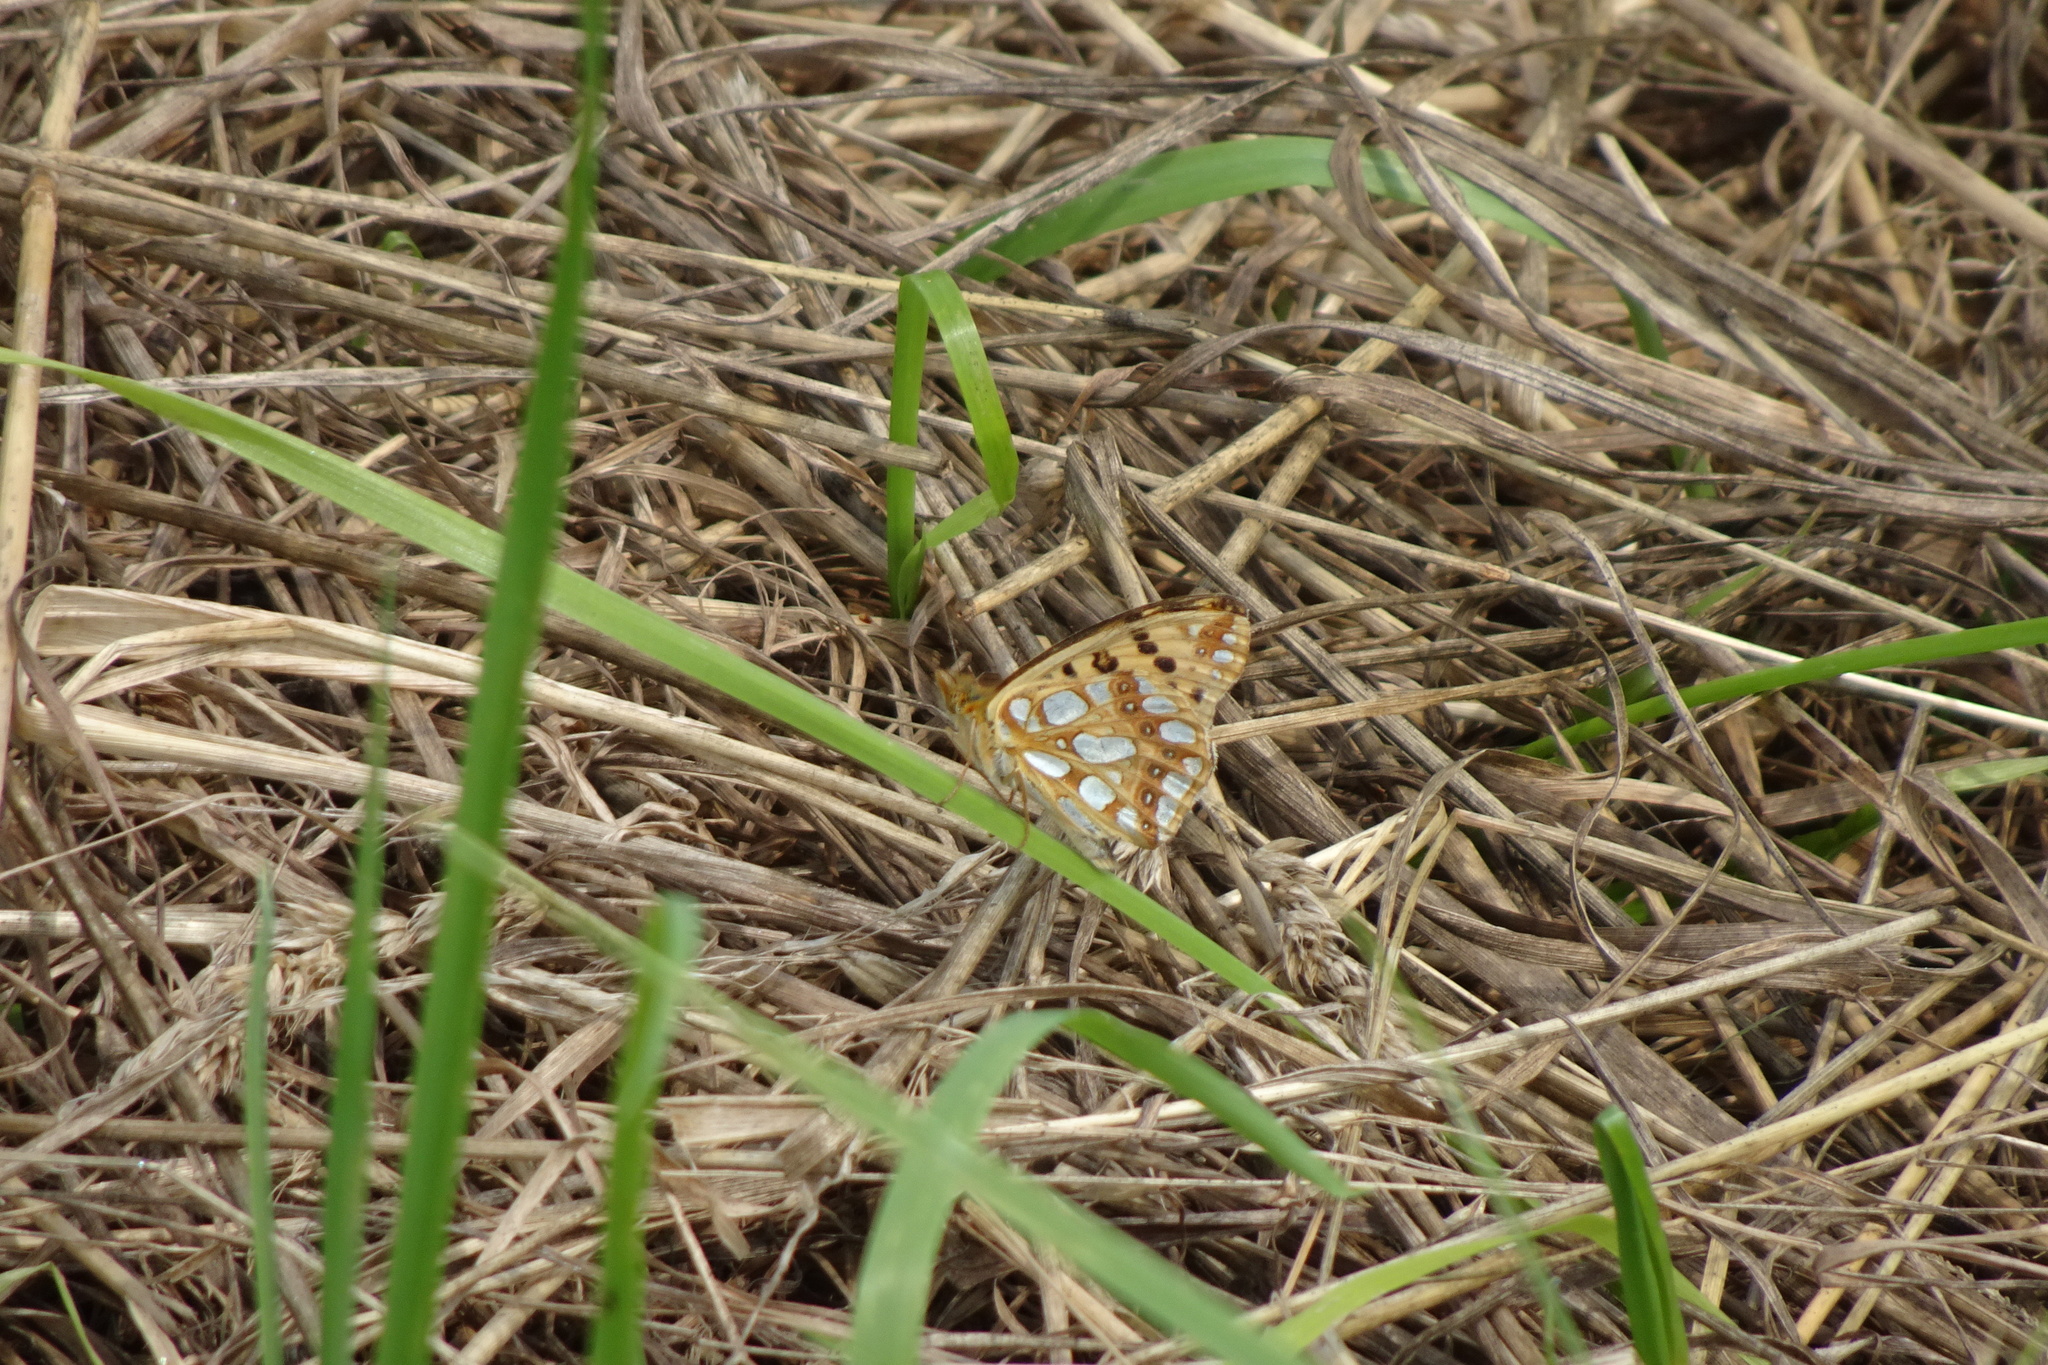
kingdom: Animalia
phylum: Arthropoda
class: Insecta
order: Lepidoptera
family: Nymphalidae
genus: Issoria
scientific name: Issoria lathonia
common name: Queen of spain fritillary
